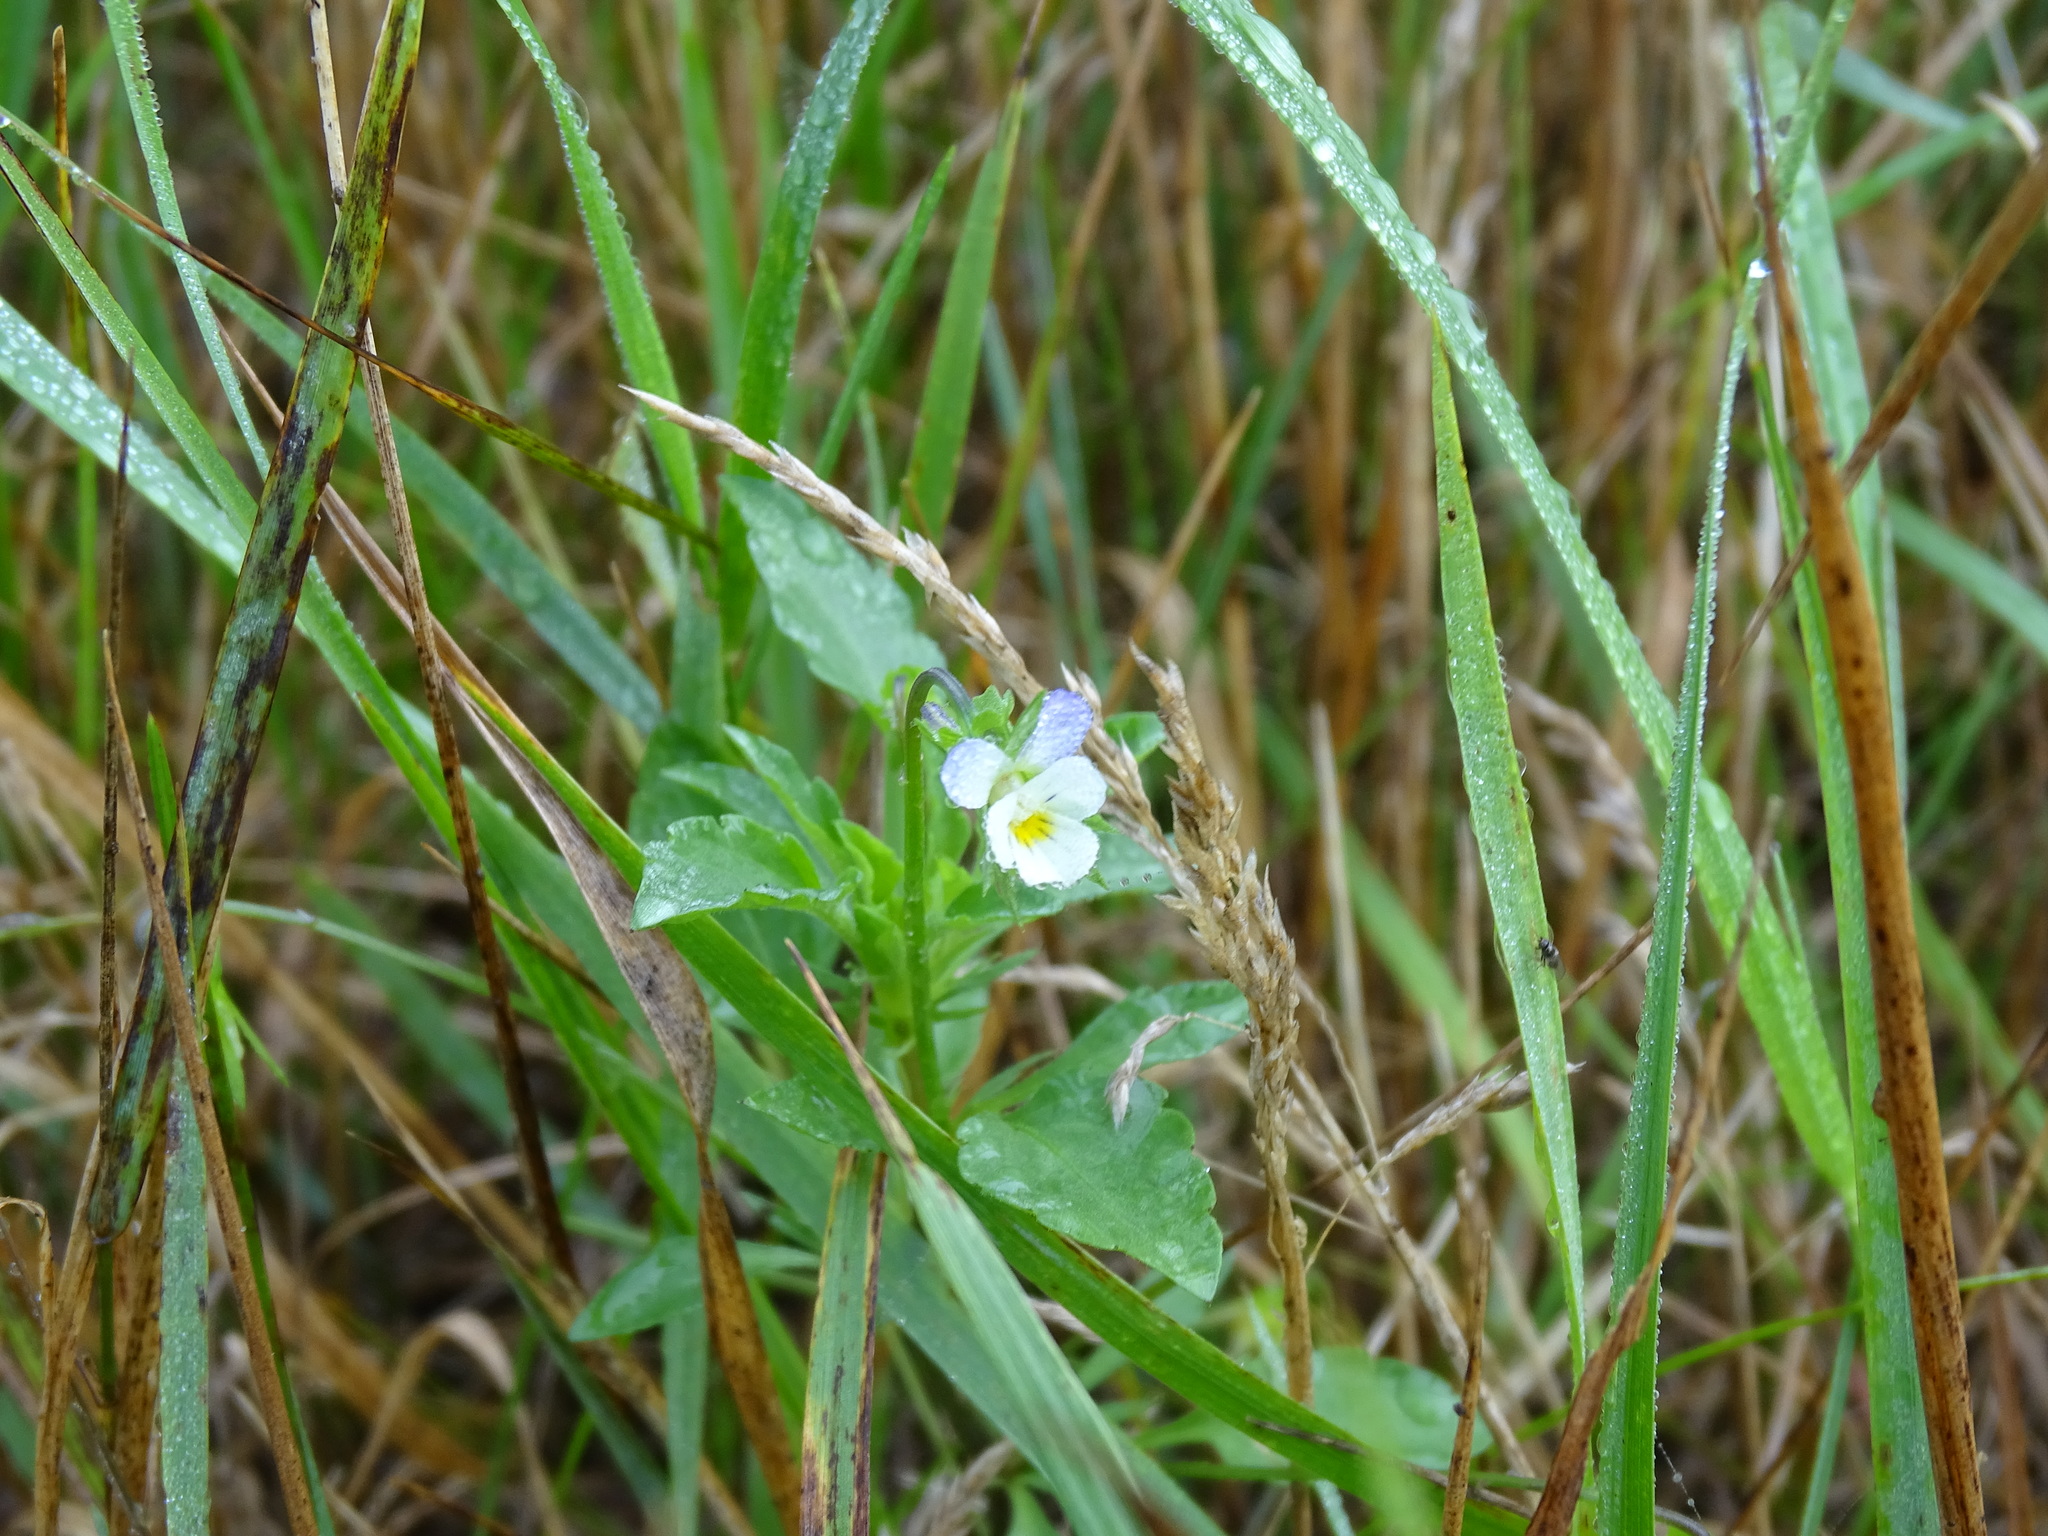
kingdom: Plantae
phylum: Tracheophyta
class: Magnoliopsida
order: Malpighiales
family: Violaceae
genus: Viola
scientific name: Viola arvensis
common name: Field pansy
